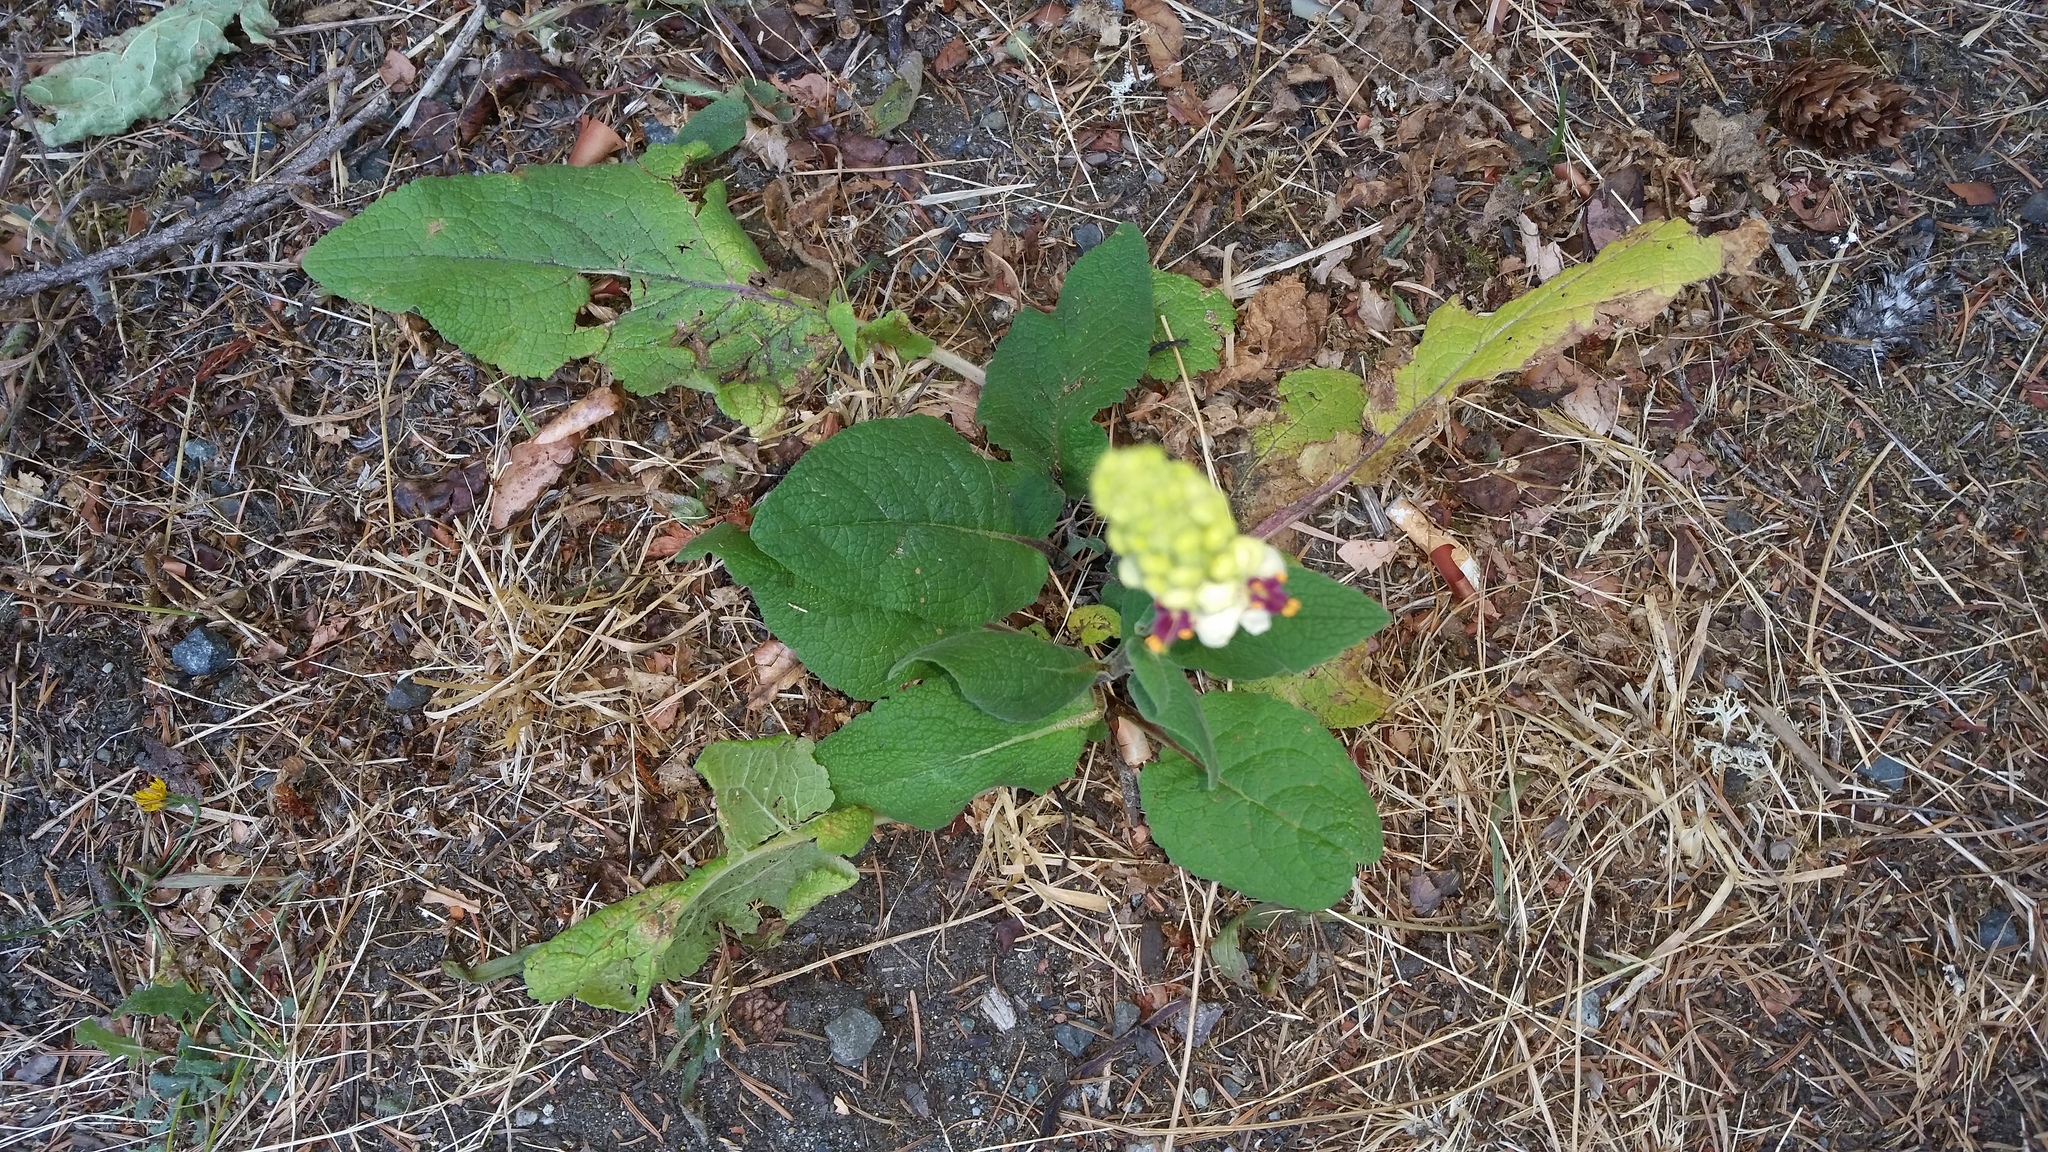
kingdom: Plantae
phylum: Tracheophyta
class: Magnoliopsida
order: Lamiales
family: Scrophulariaceae
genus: Verbascum
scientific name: Verbascum nigrum
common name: Dark mullein
